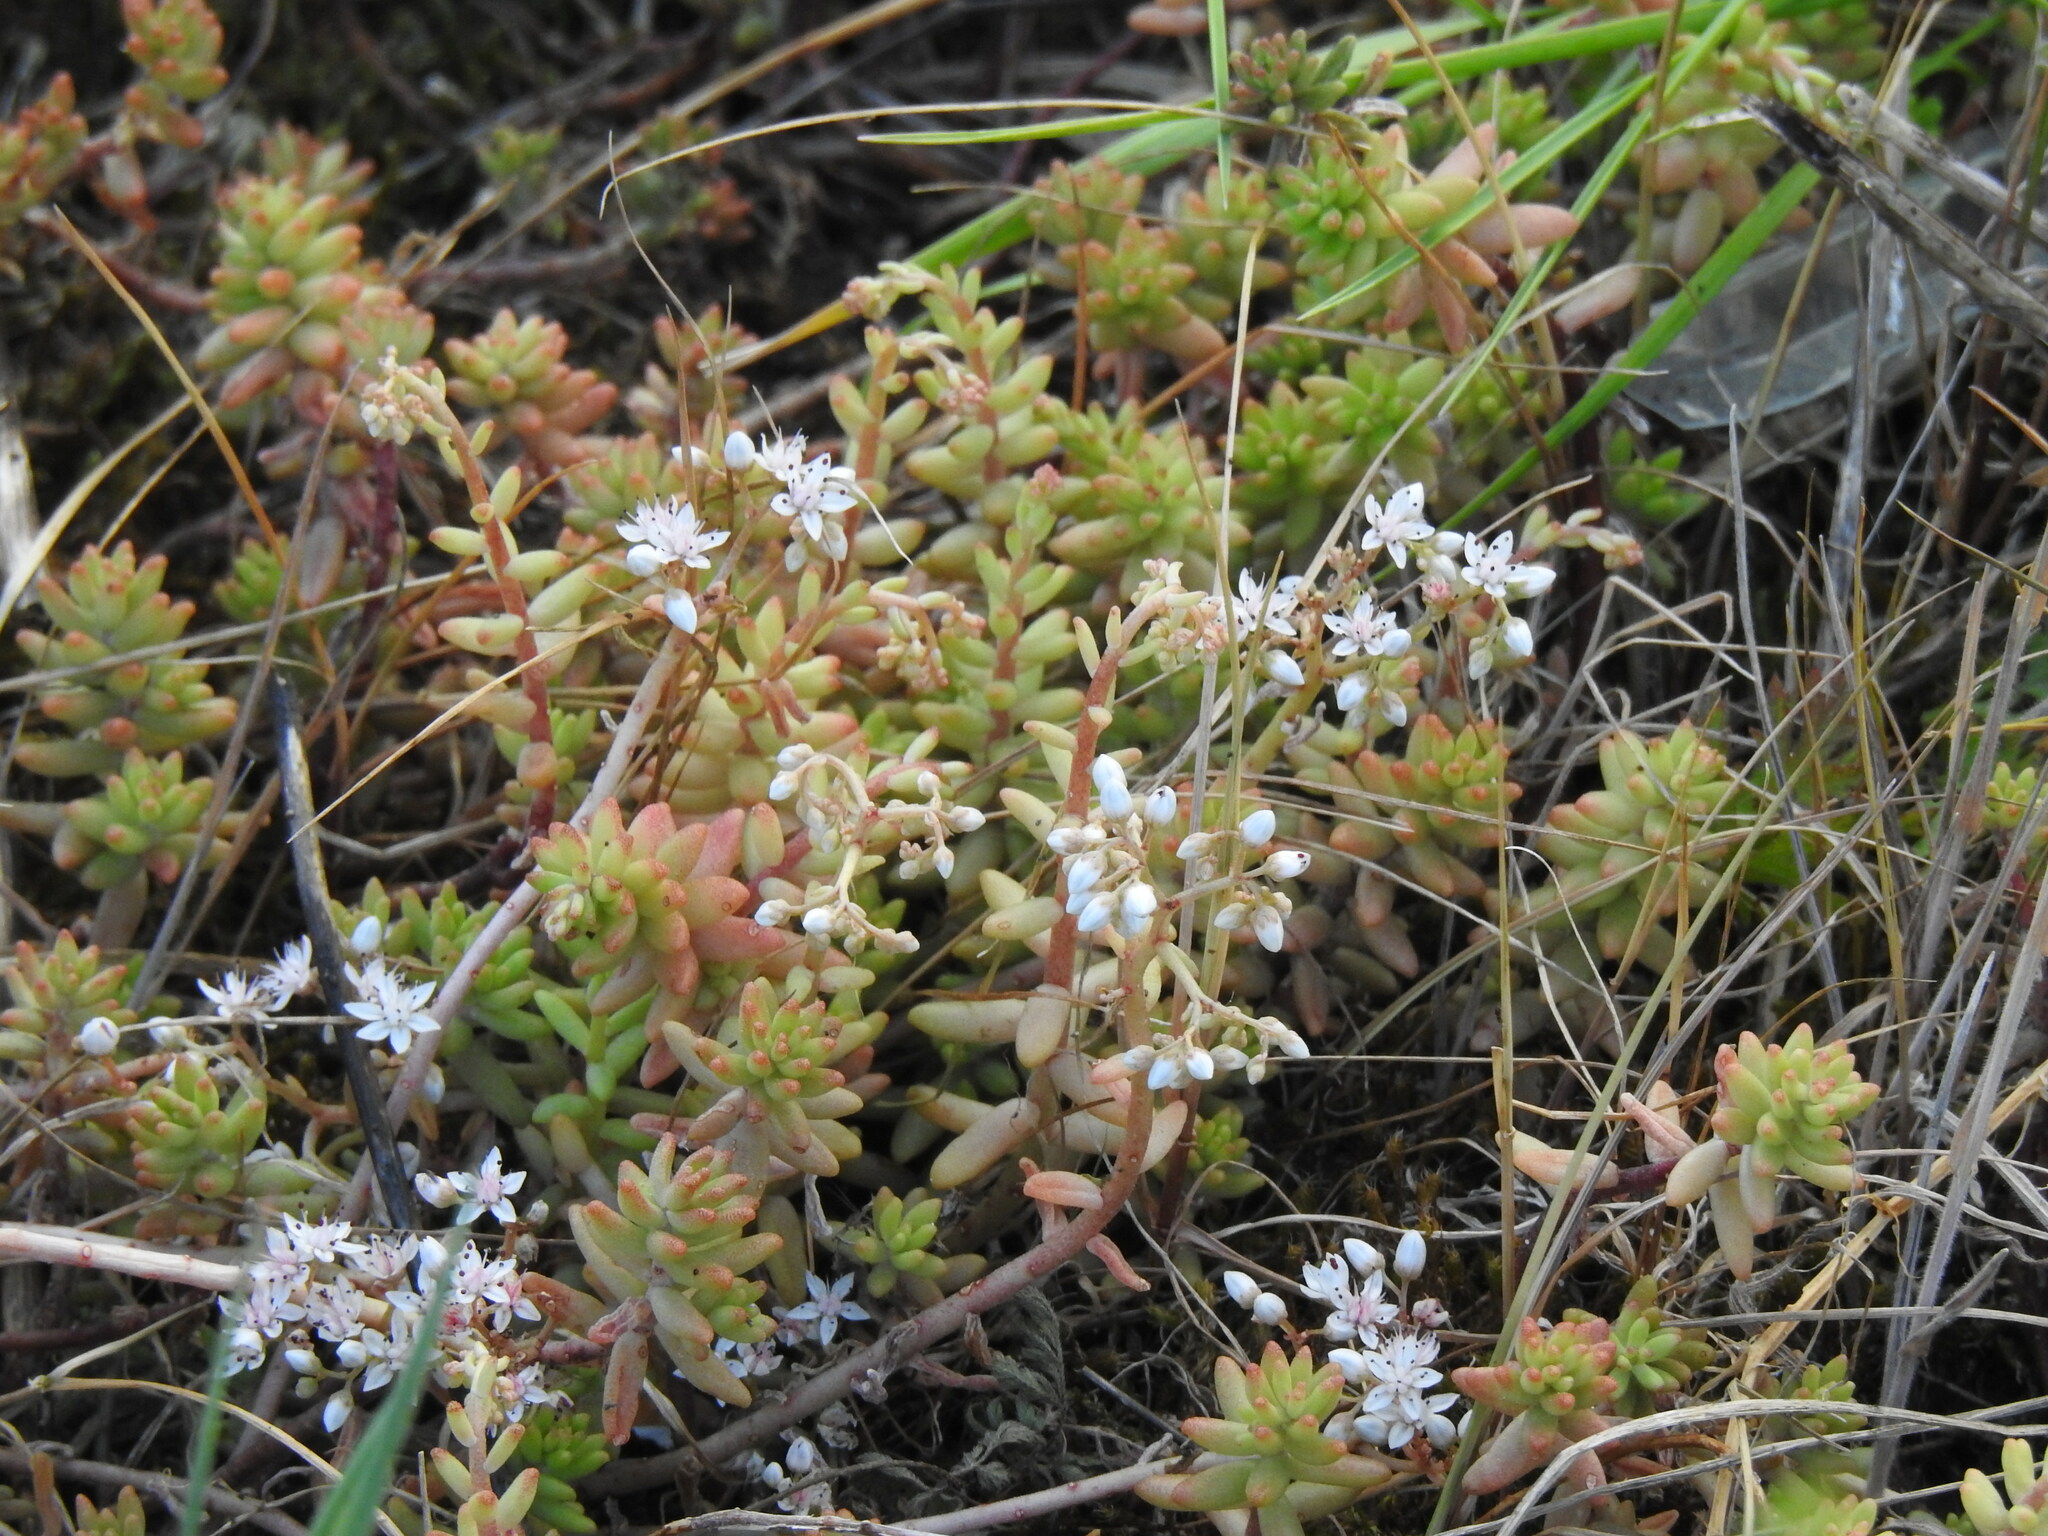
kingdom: Plantae
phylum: Tracheophyta
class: Magnoliopsida
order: Saxifragales
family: Crassulaceae
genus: Sedum
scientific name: Sedum album
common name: White stonecrop
